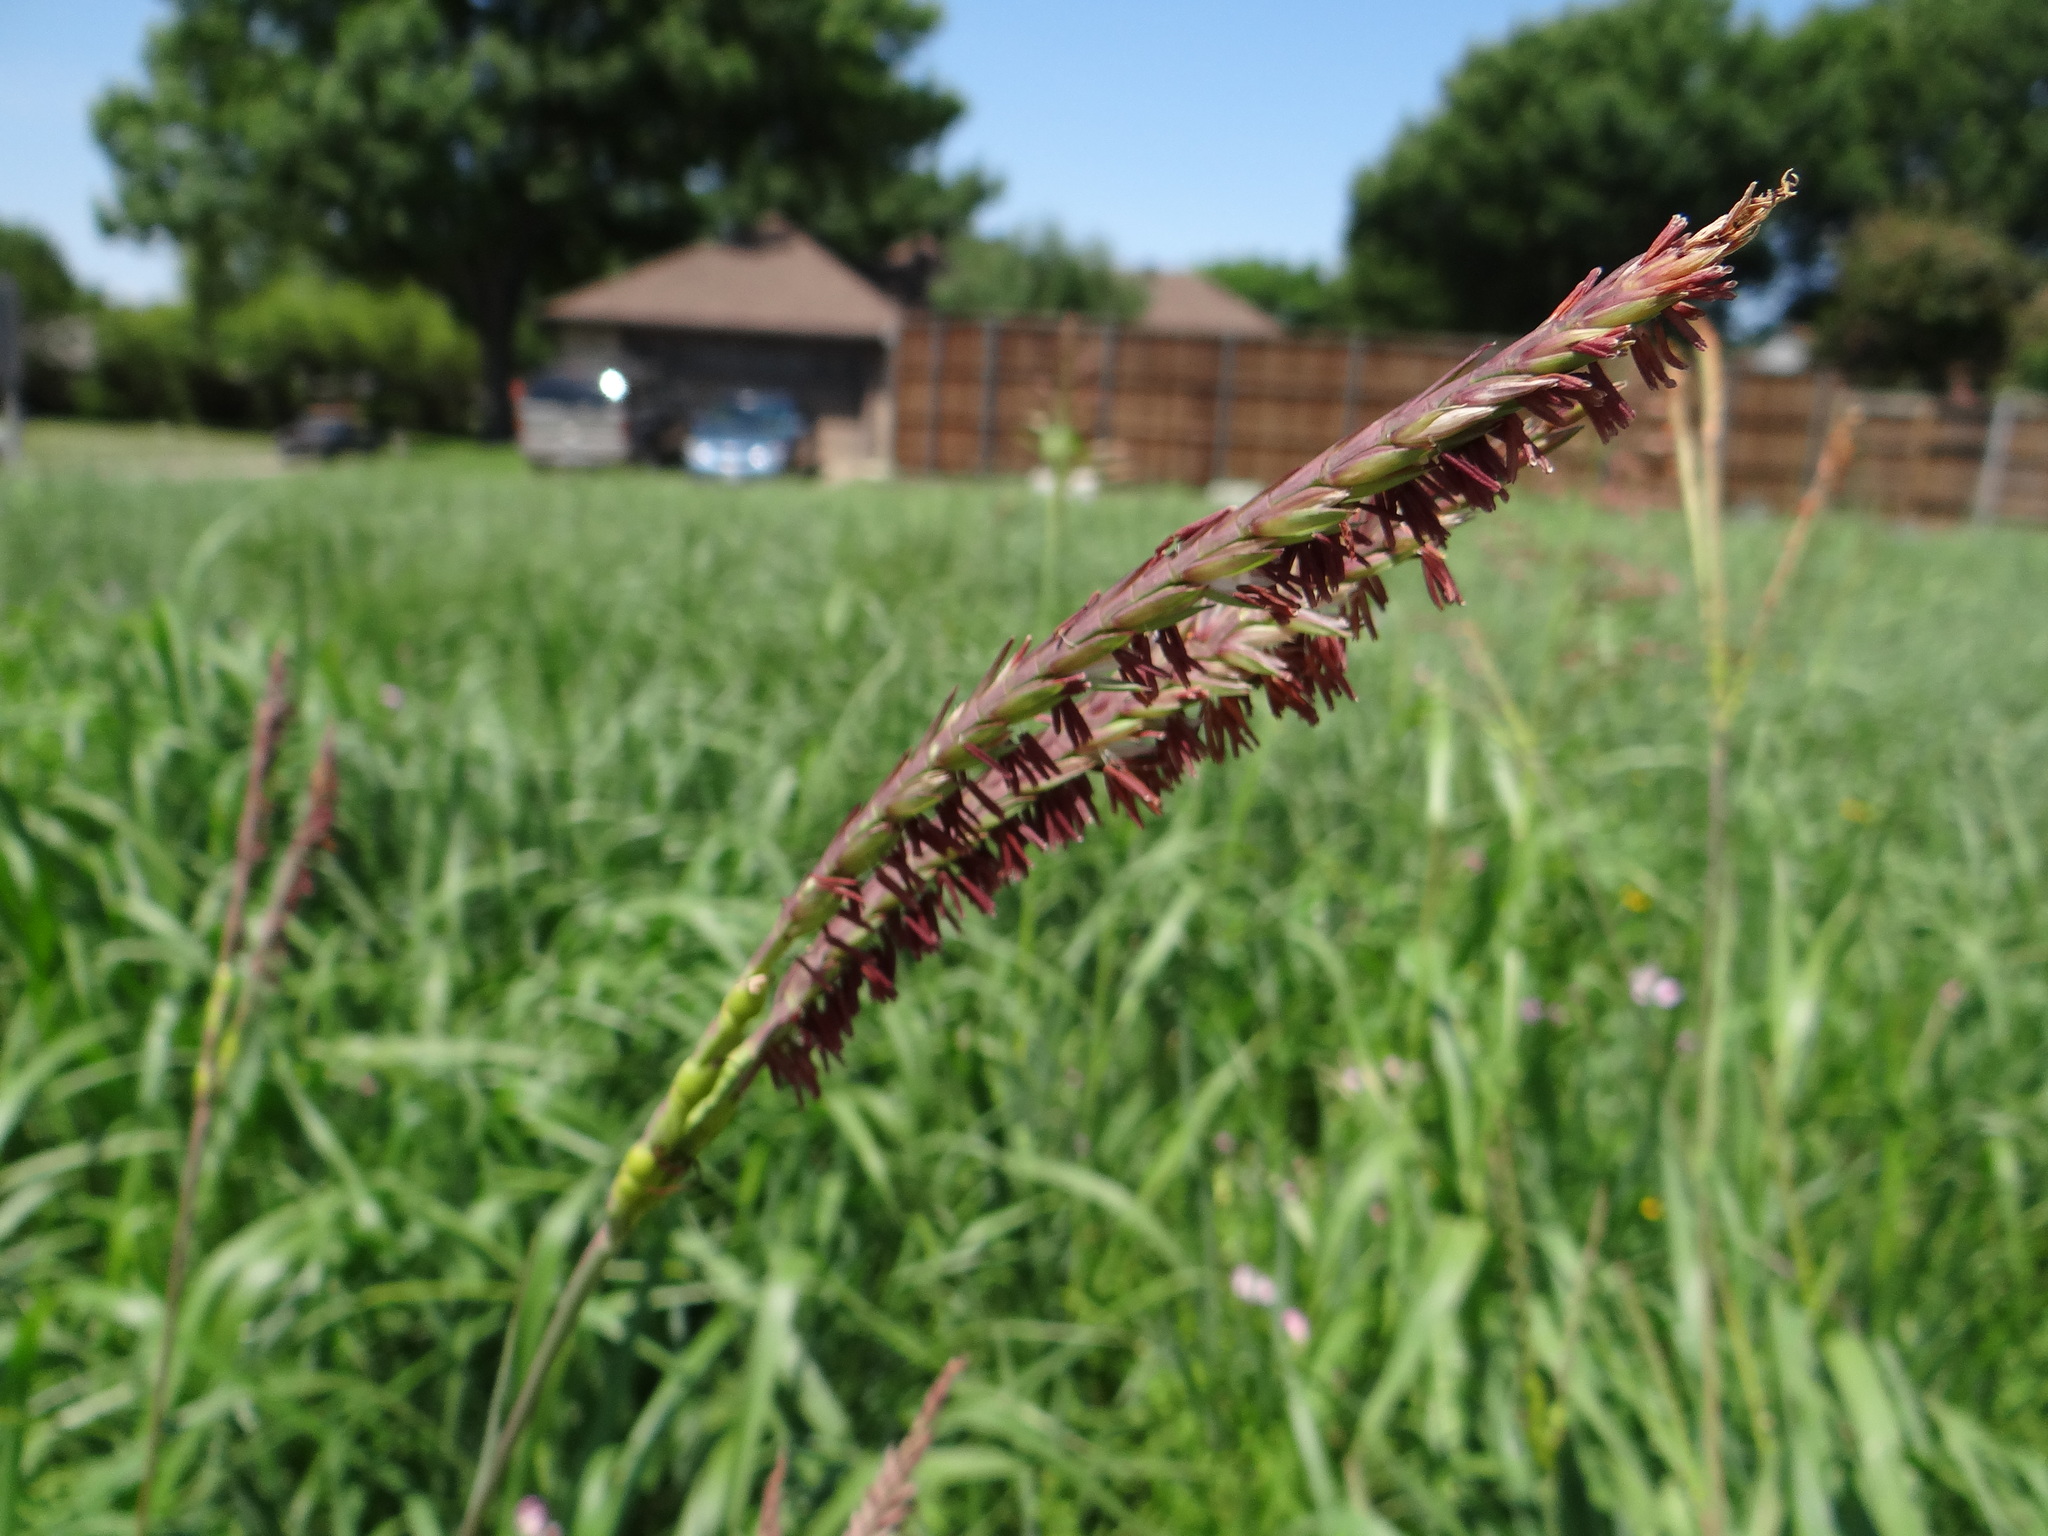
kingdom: Plantae
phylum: Tracheophyta
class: Liliopsida
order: Poales
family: Poaceae
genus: Tripsacum
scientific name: Tripsacum dactyloides
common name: Buffalo-grass
